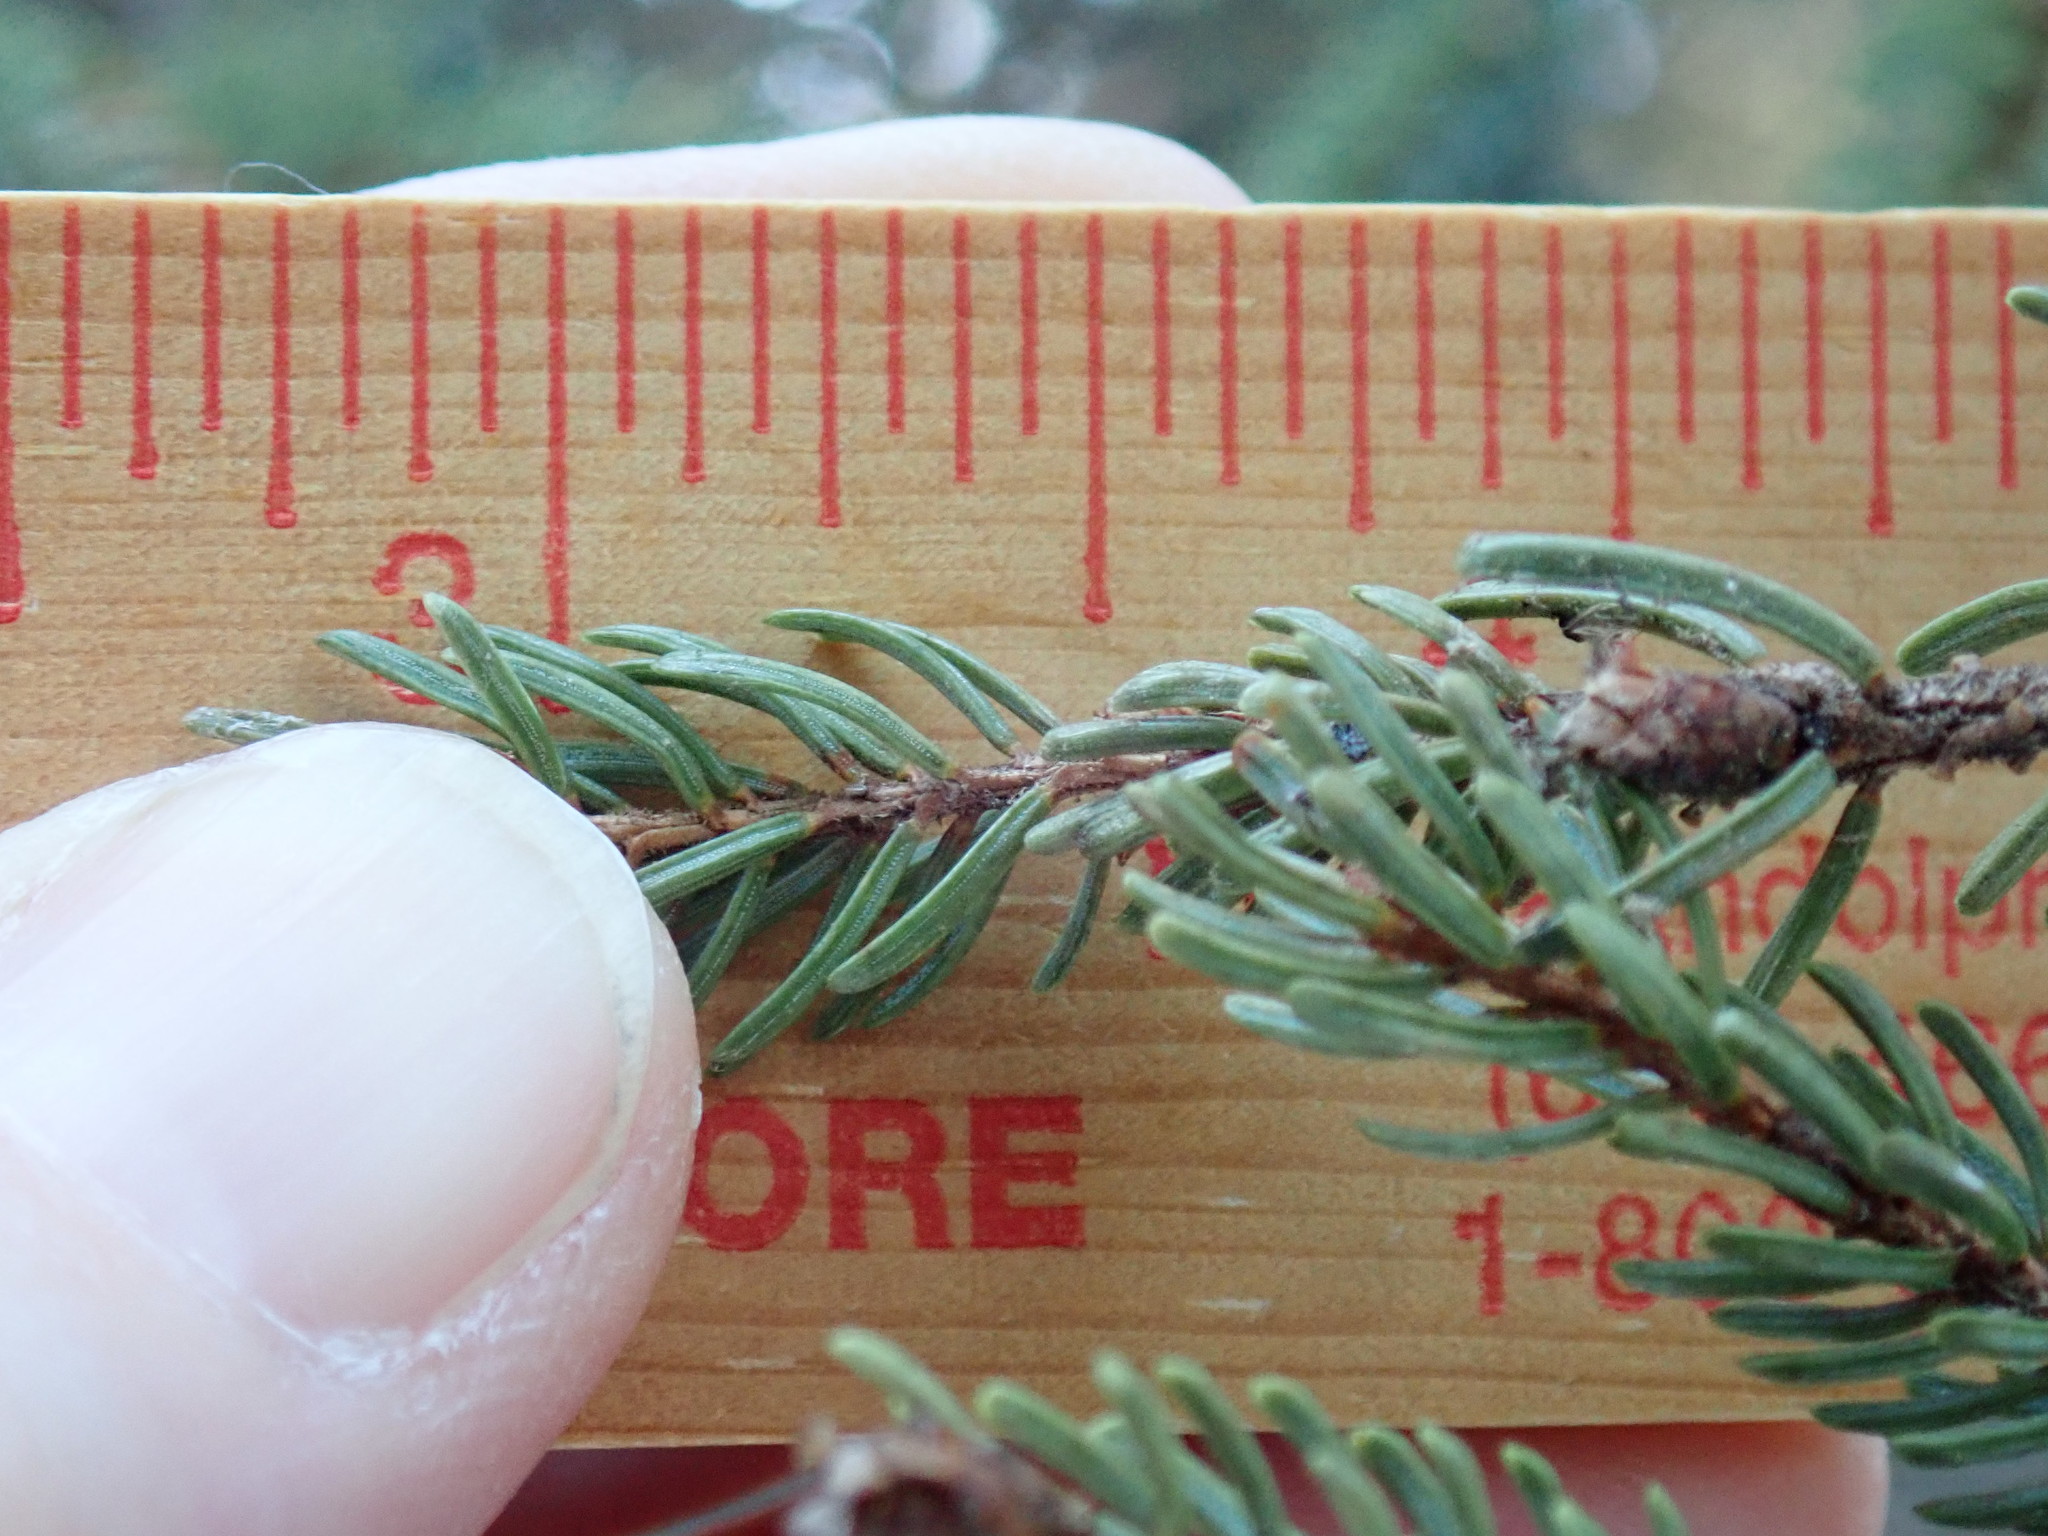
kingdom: Plantae
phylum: Tracheophyta
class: Pinopsida
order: Pinales
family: Pinaceae
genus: Picea
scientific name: Picea mariana
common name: Black spruce
